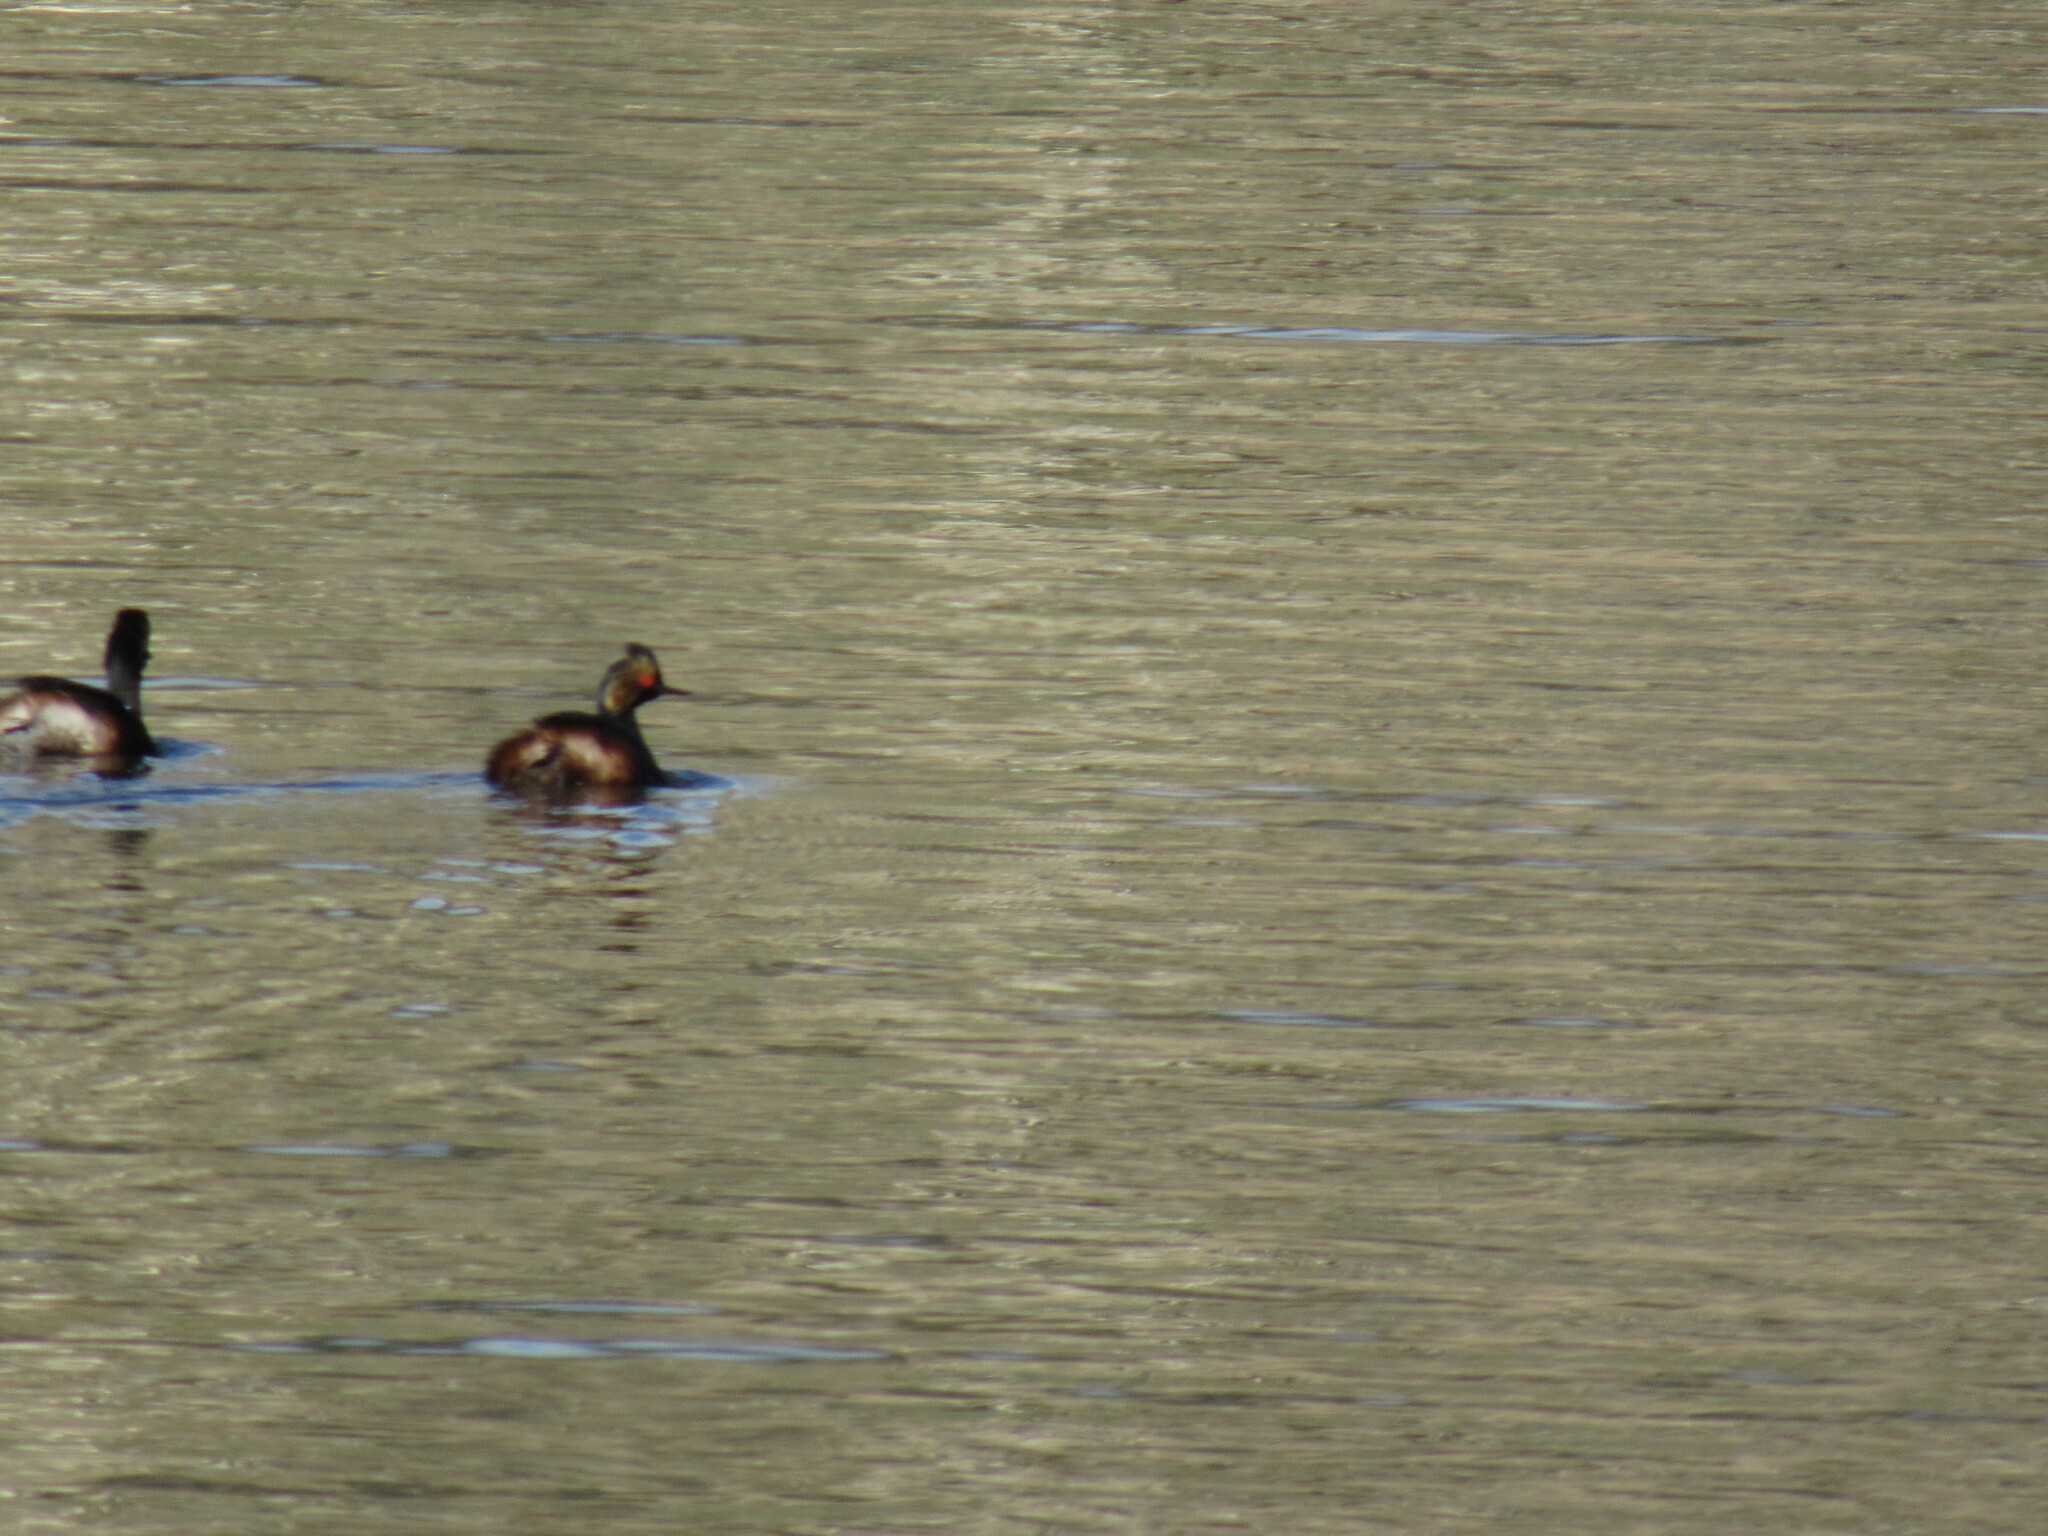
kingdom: Animalia
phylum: Chordata
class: Aves
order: Podicipediformes
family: Podicipedidae
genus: Podiceps
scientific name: Podiceps nigricollis
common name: Black-necked grebe
